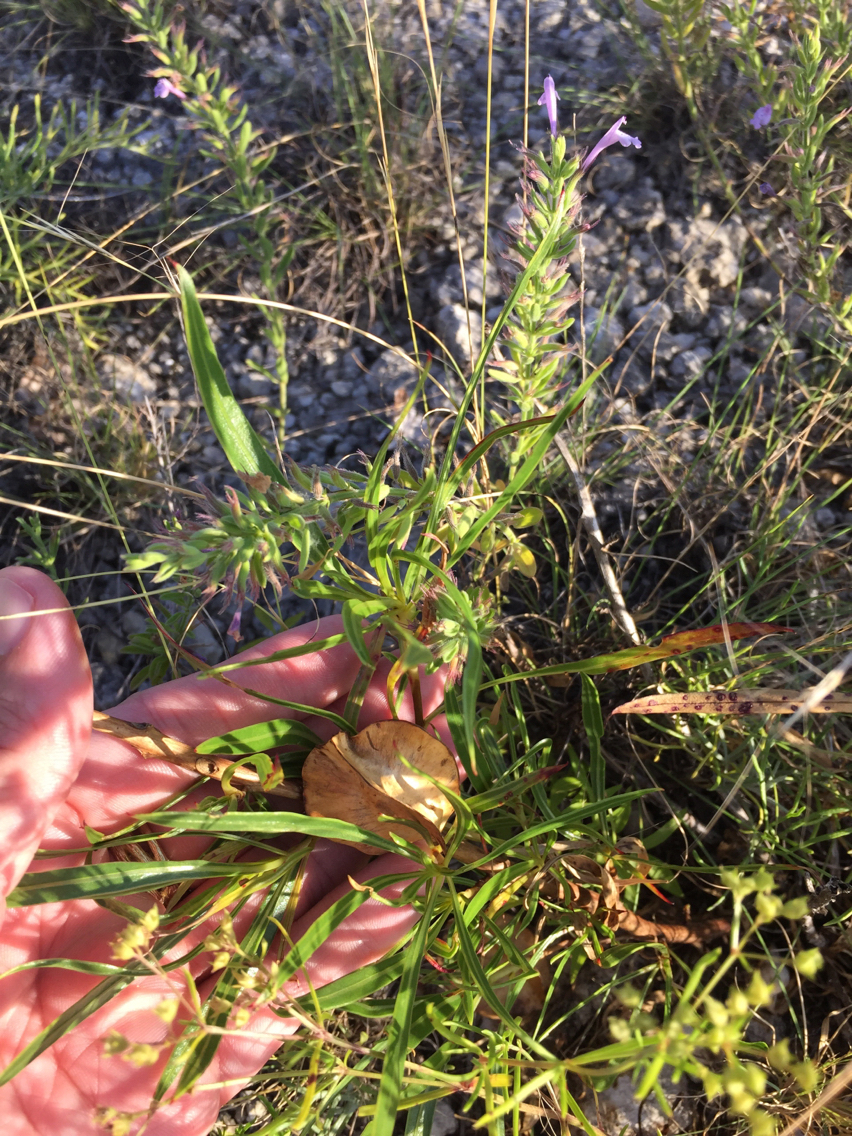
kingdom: Plantae
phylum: Tracheophyta
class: Magnoliopsida
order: Myrtales
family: Onagraceae
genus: Oenothera
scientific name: Oenothera macrocarpa
